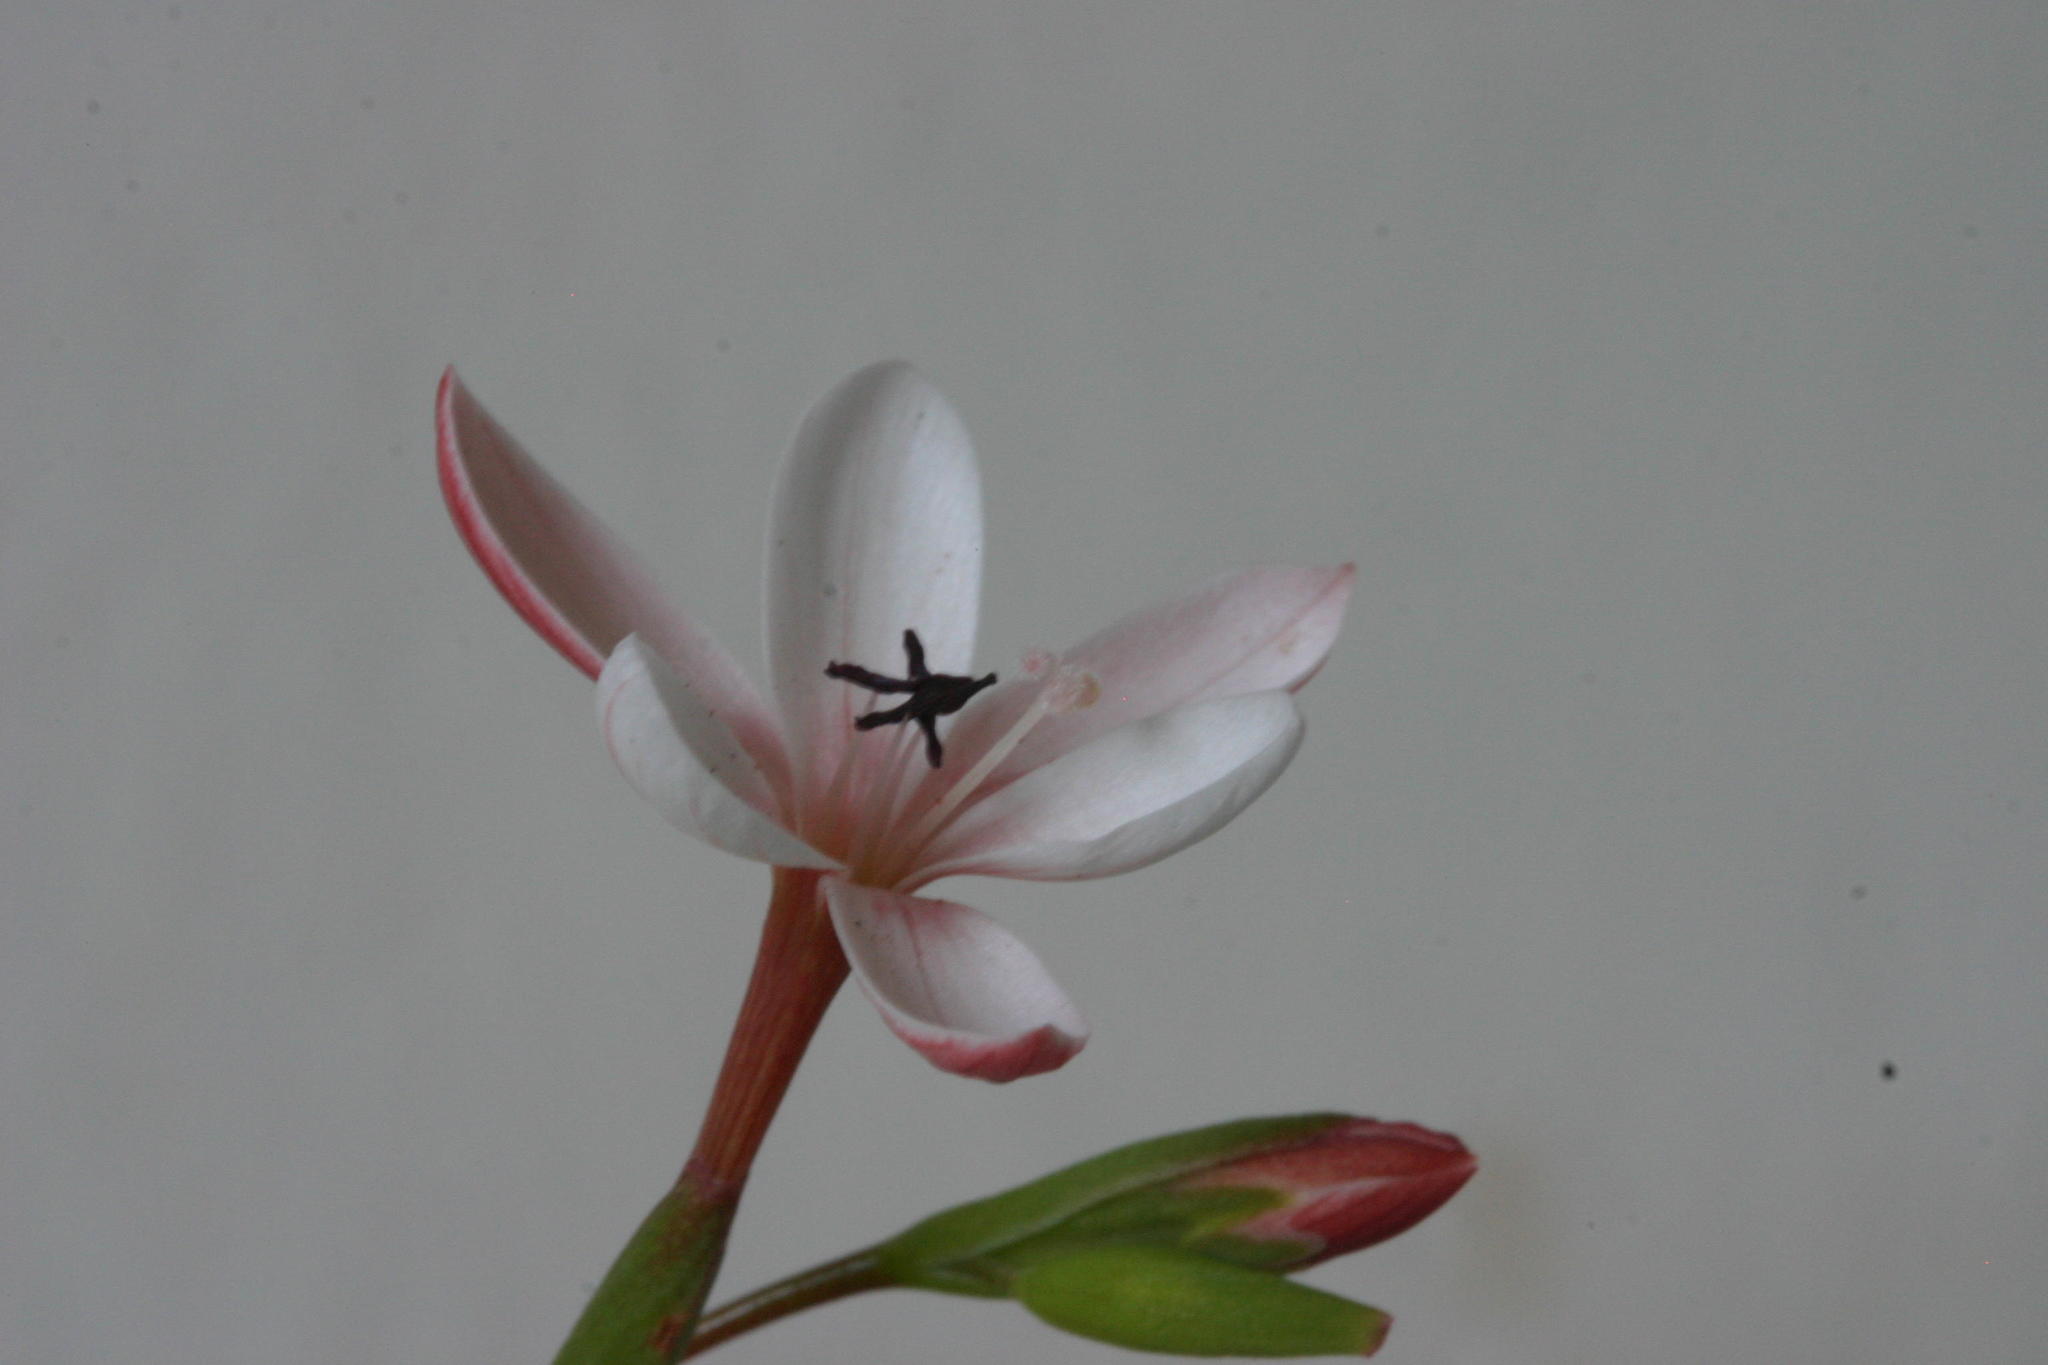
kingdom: Plantae
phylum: Tracheophyta
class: Liliopsida
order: Asparagales
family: Iridaceae
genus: Geissorhiza
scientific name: Geissorhiza ovata
